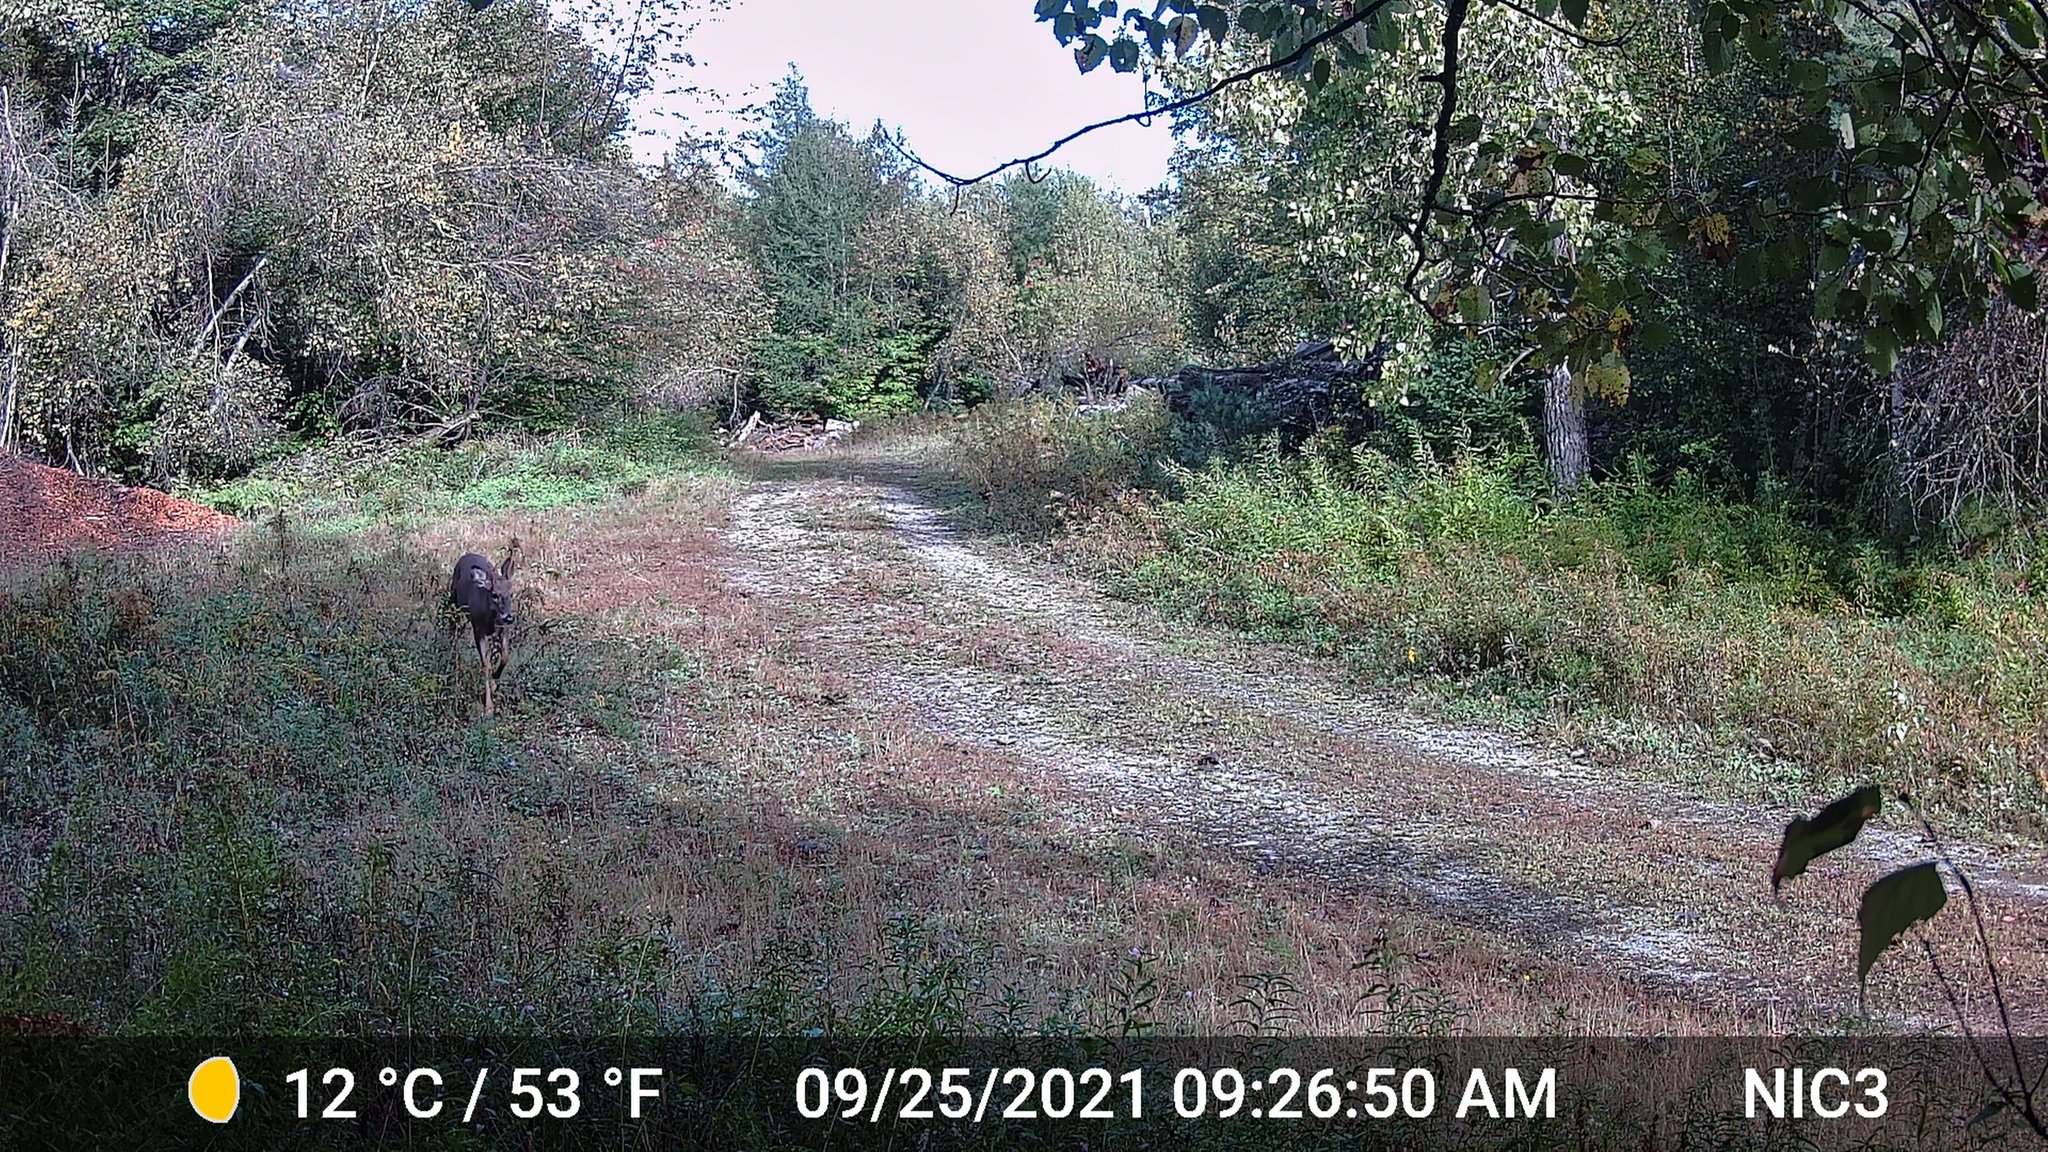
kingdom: Animalia
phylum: Chordata
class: Mammalia
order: Artiodactyla
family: Cervidae
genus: Odocoileus
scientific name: Odocoileus virginianus
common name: White-tailed deer
